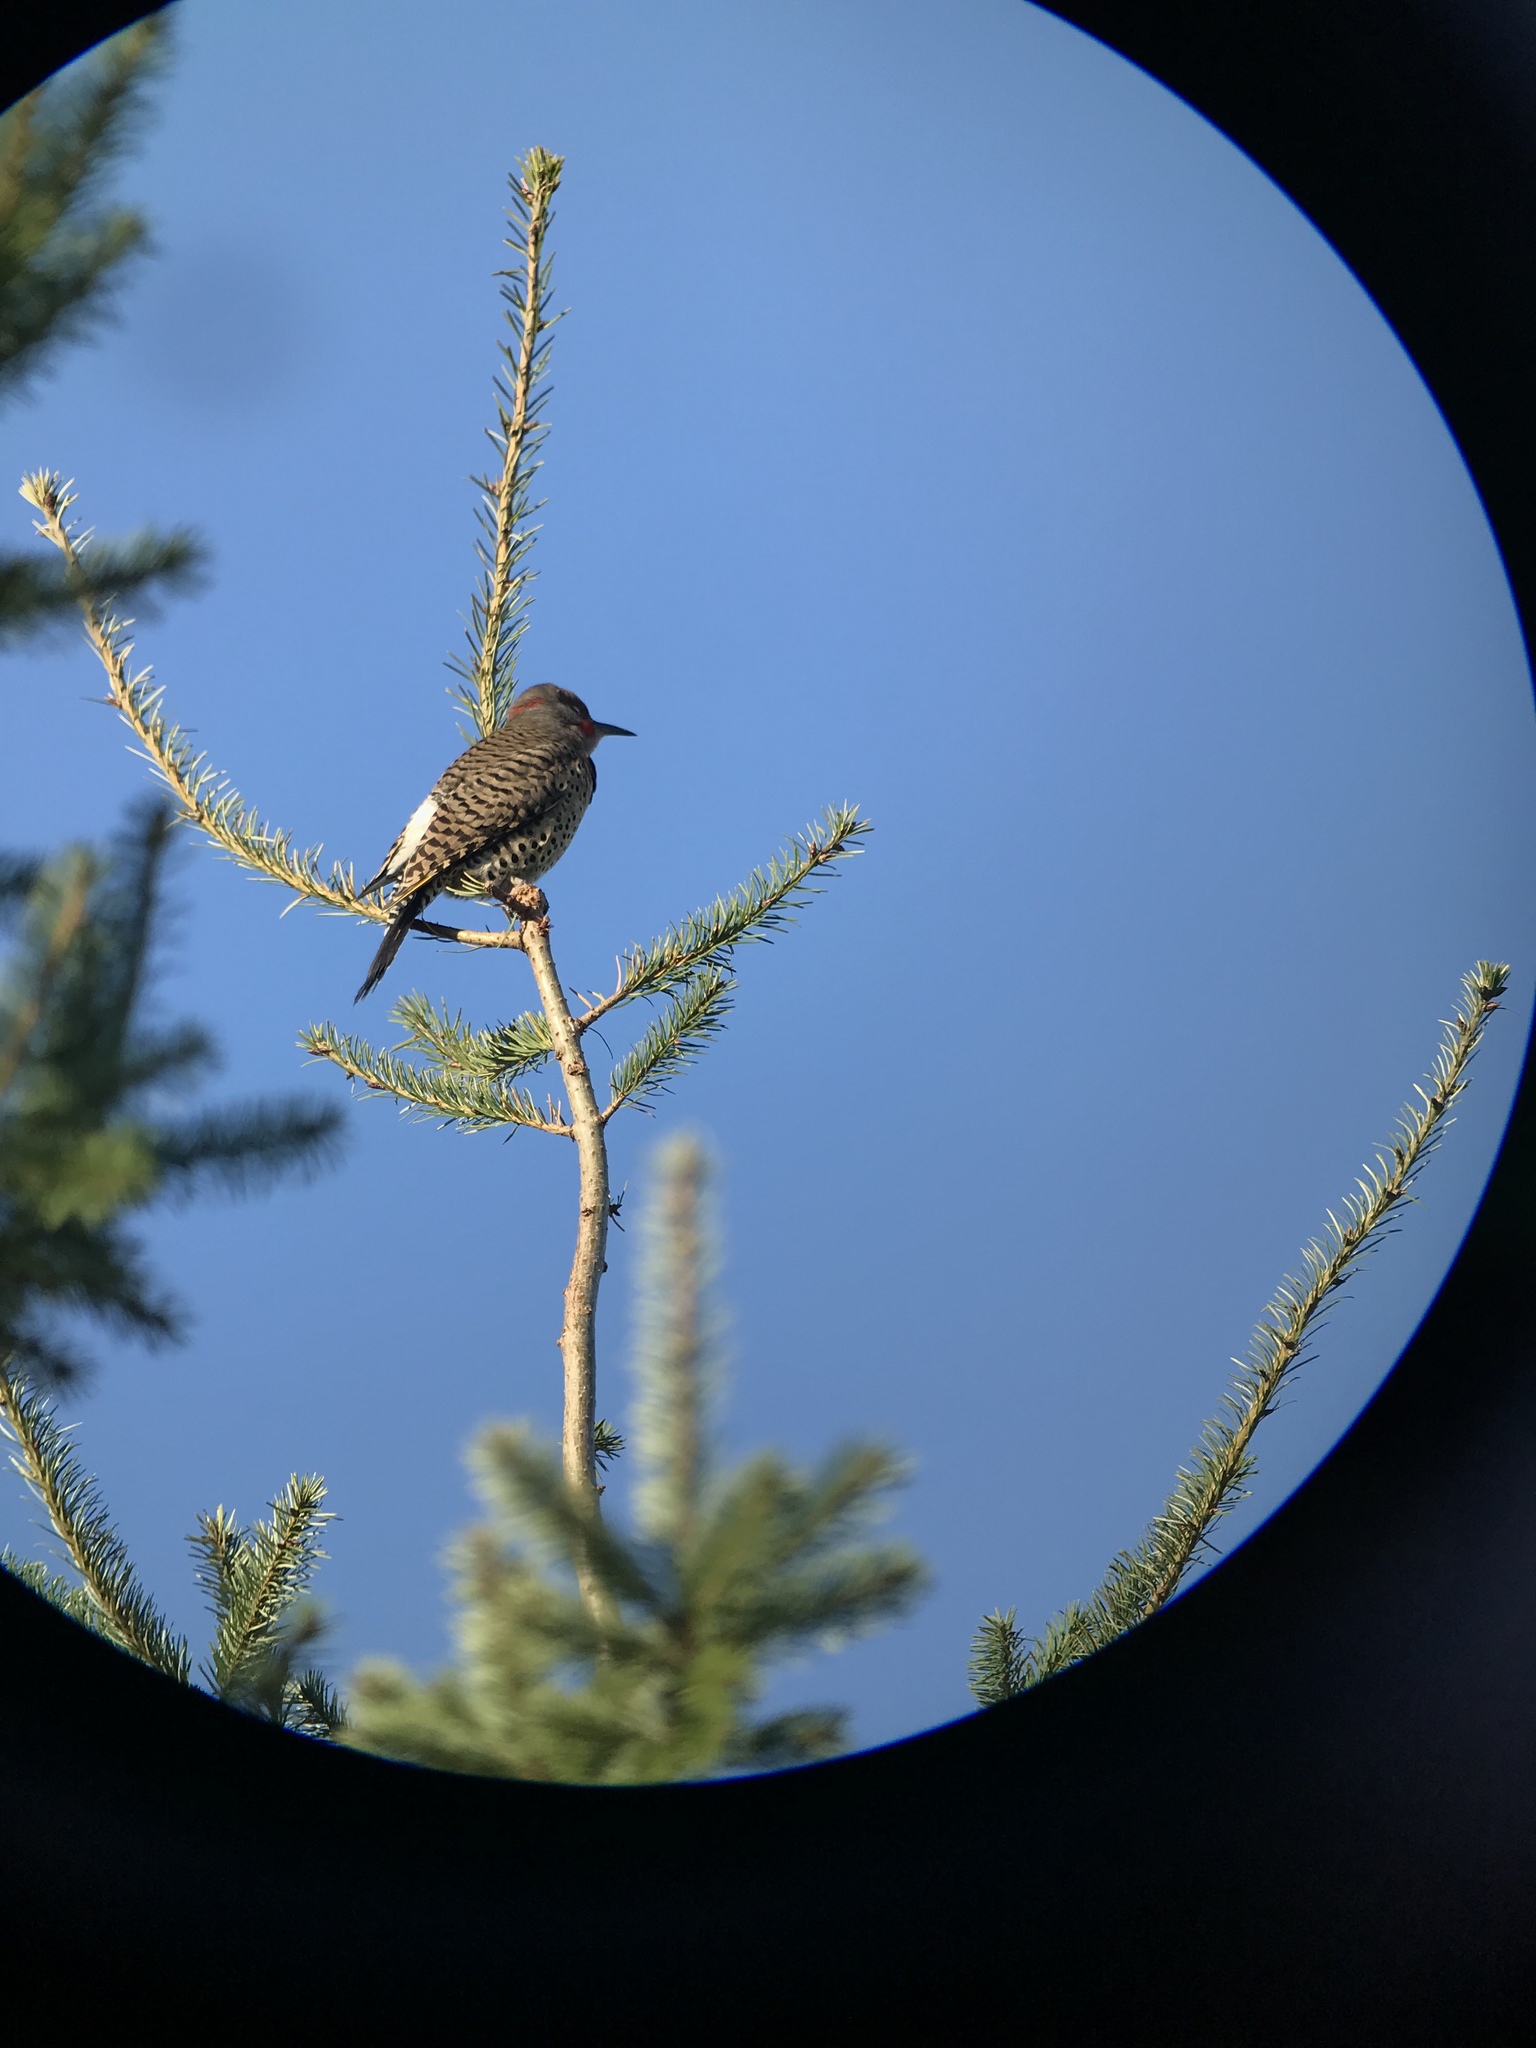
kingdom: Animalia
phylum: Chordata
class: Aves
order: Piciformes
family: Picidae
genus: Colaptes
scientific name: Colaptes
